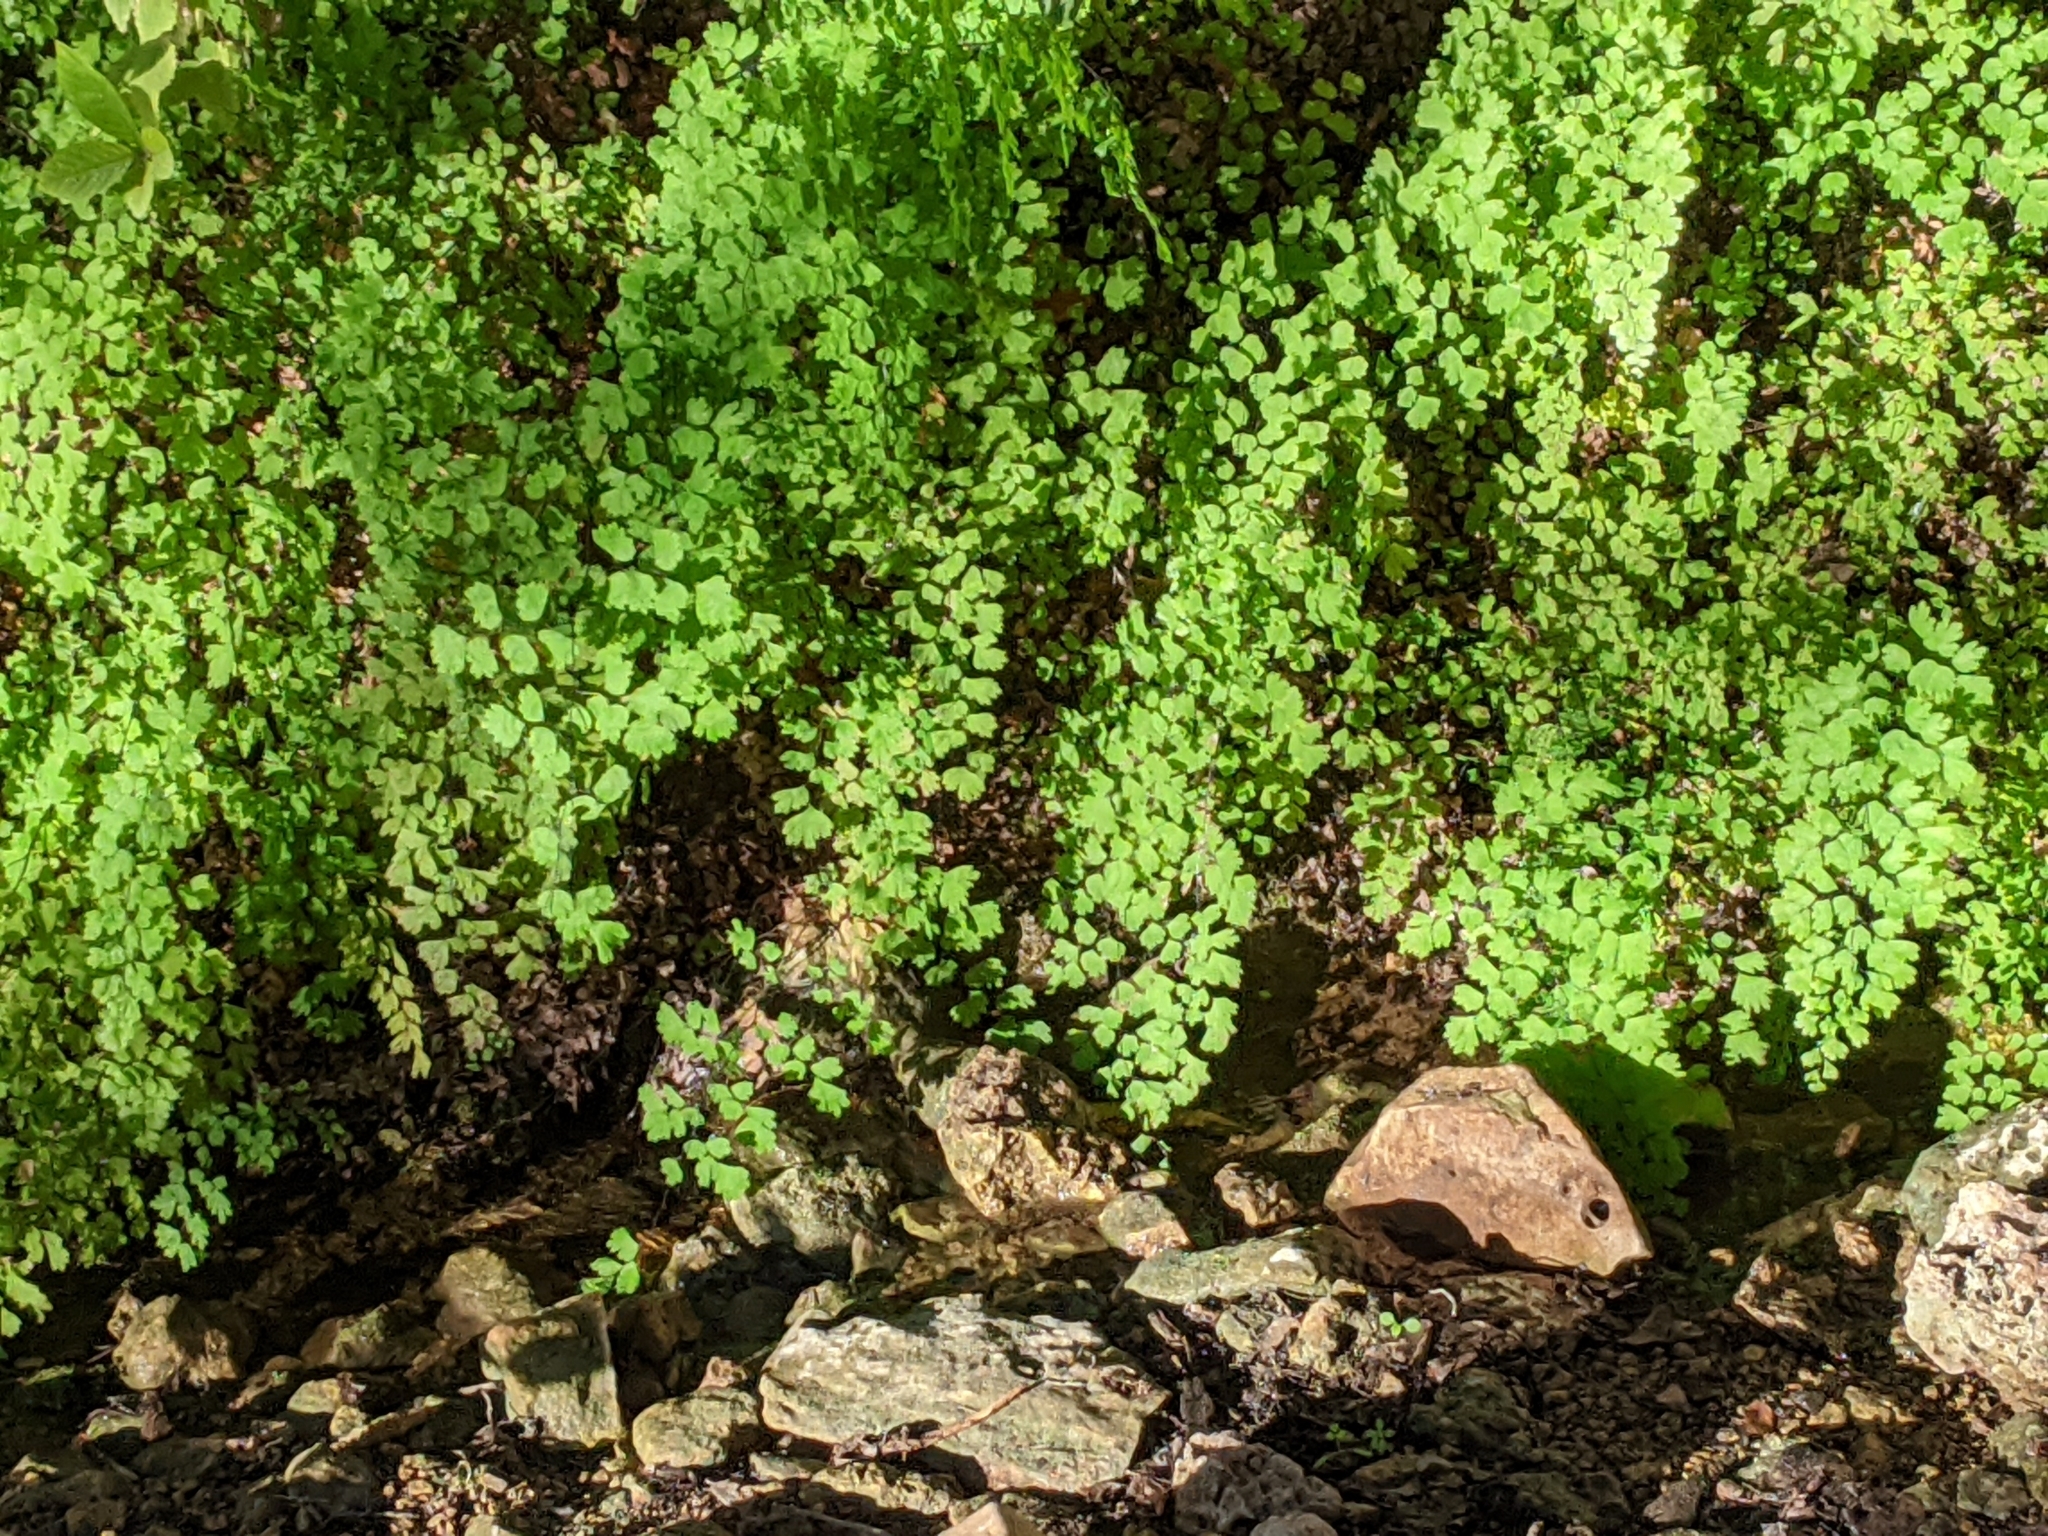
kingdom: Plantae
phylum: Tracheophyta
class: Polypodiopsida
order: Polypodiales
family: Pteridaceae
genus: Adiantum
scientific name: Adiantum capillus-veneris
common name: Maidenhair fern
